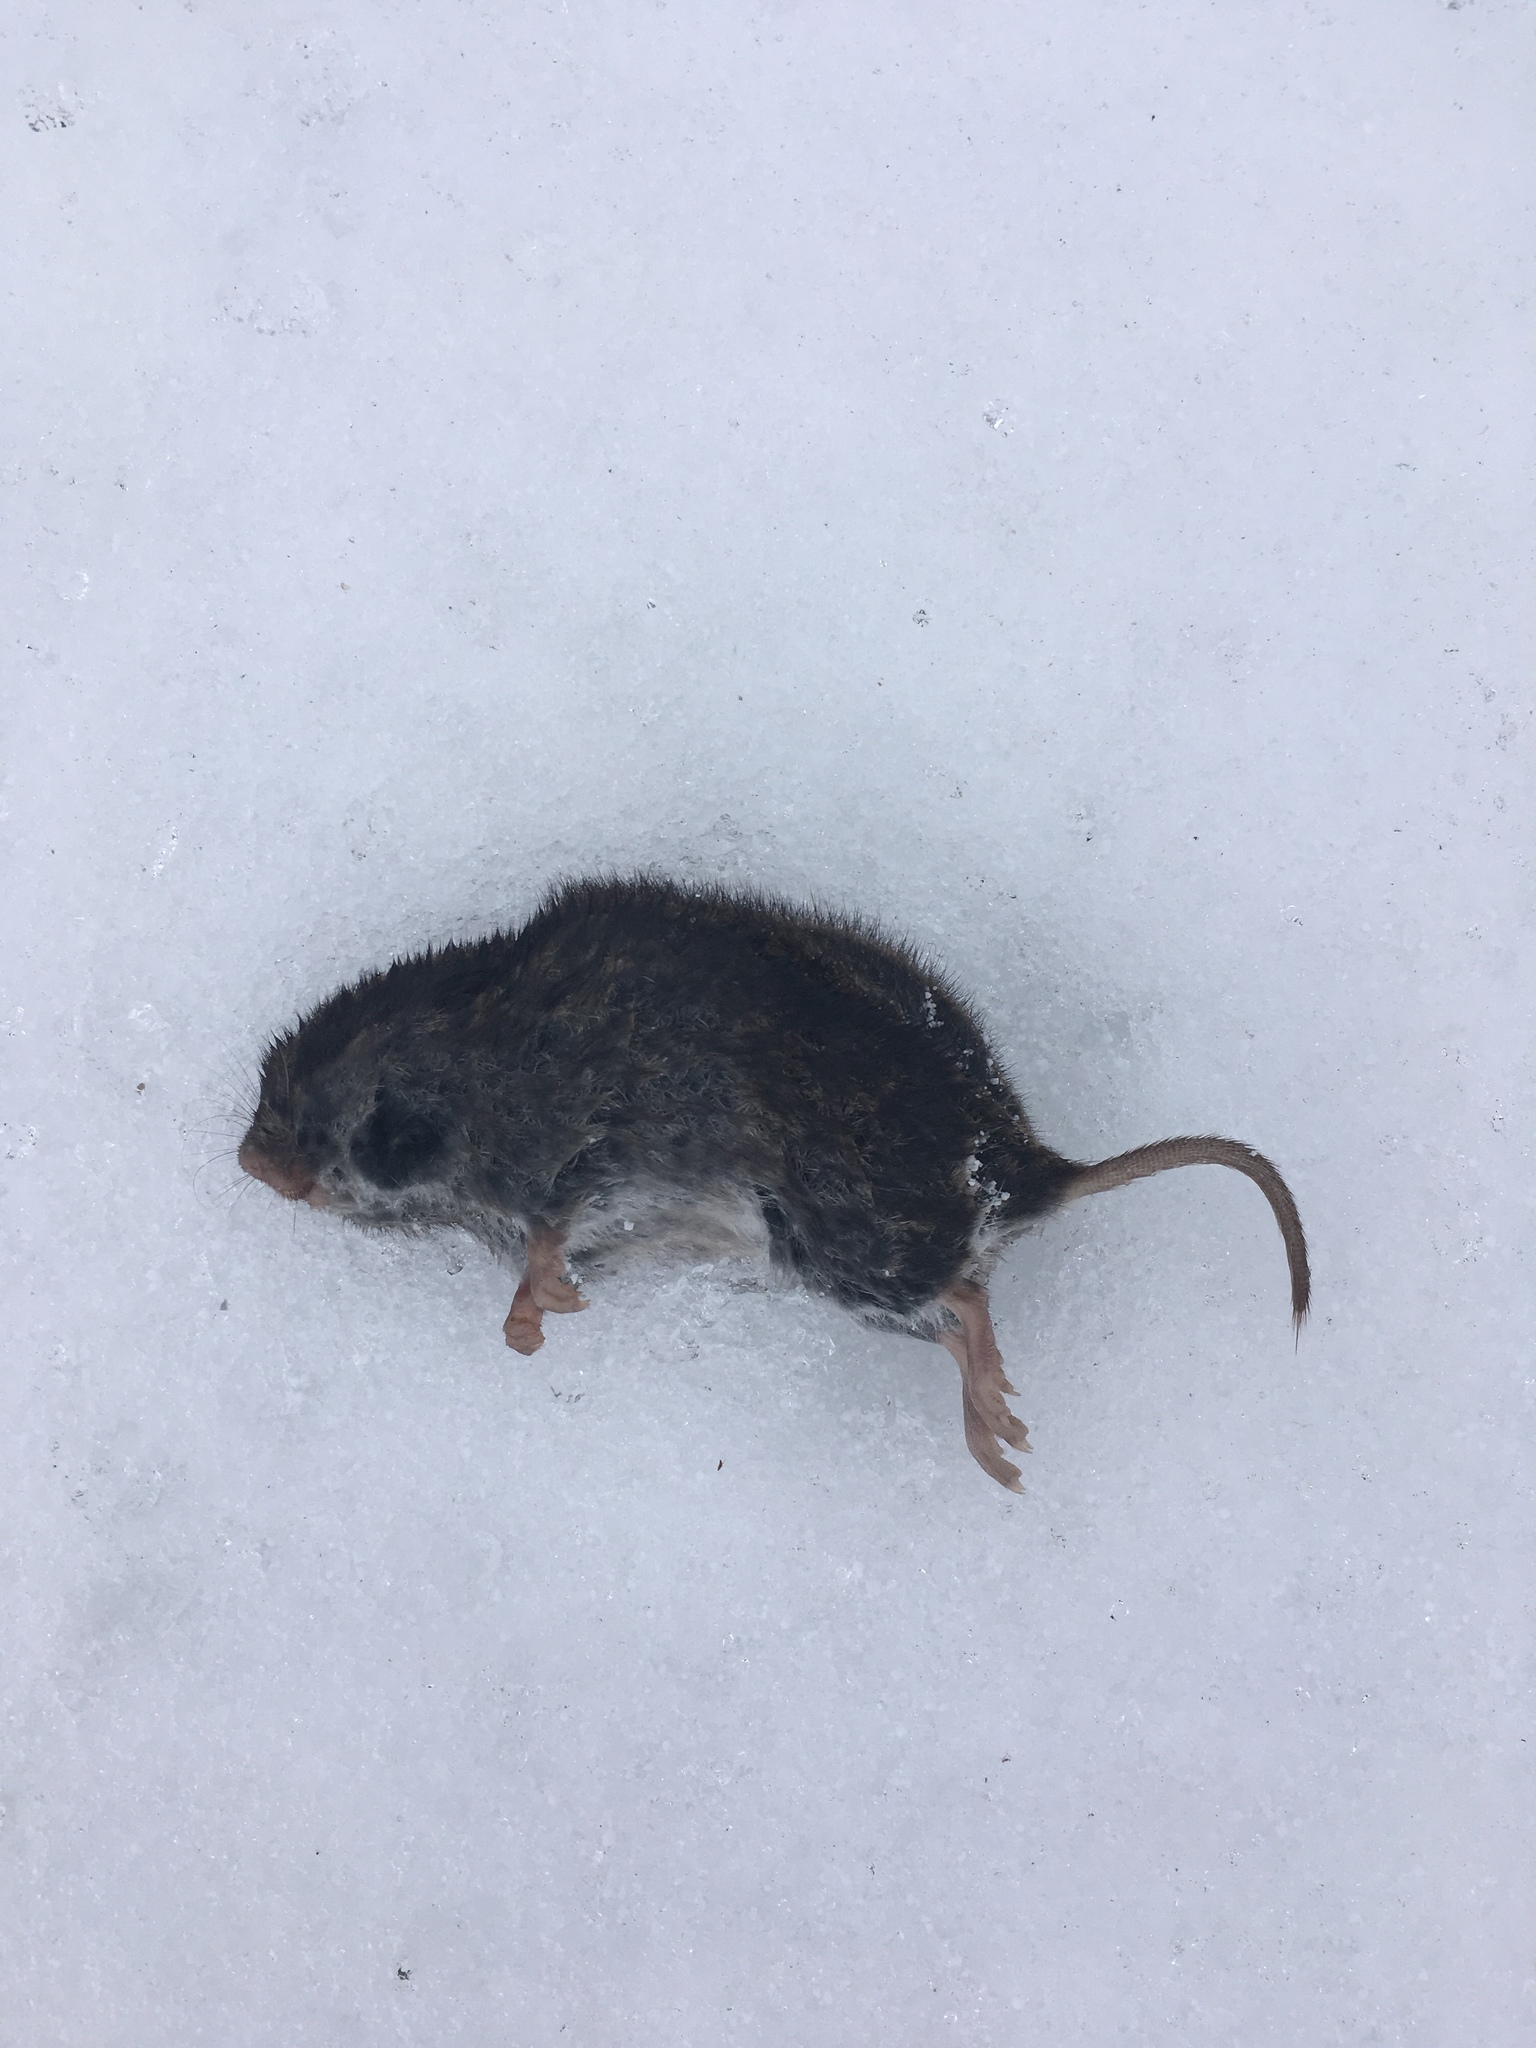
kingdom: Animalia
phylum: Chordata
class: Mammalia
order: Rodentia
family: Cricetidae
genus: Microtus
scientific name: Microtus pennsylvanicus
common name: Meadow vole
